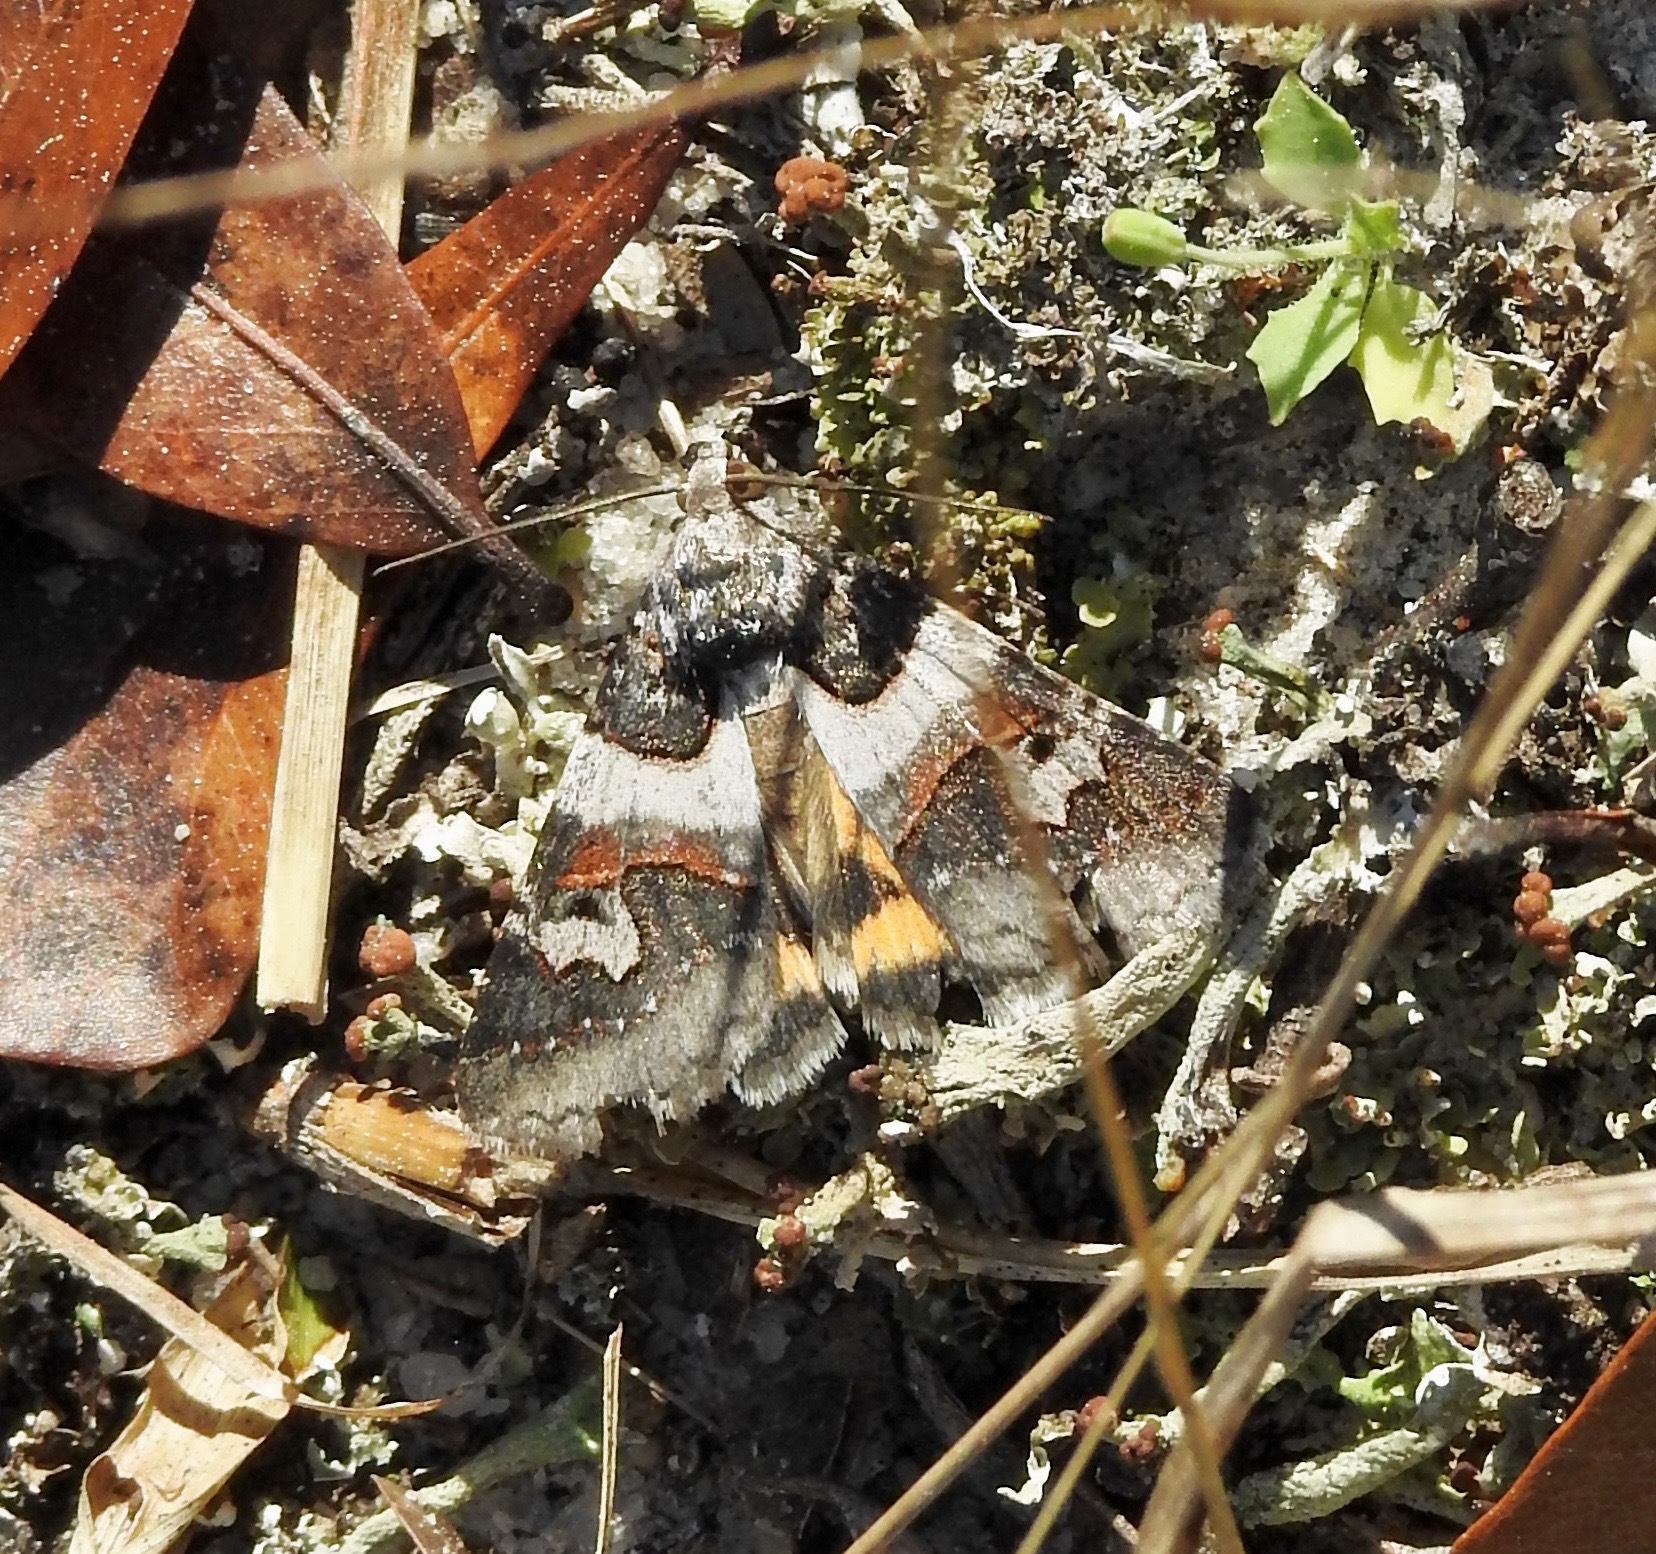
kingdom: Animalia
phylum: Arthropoda
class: Insecta
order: Lepidoptera
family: Erebidae
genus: Drasteria
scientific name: Drasteria graphica
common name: Coastal graphic
